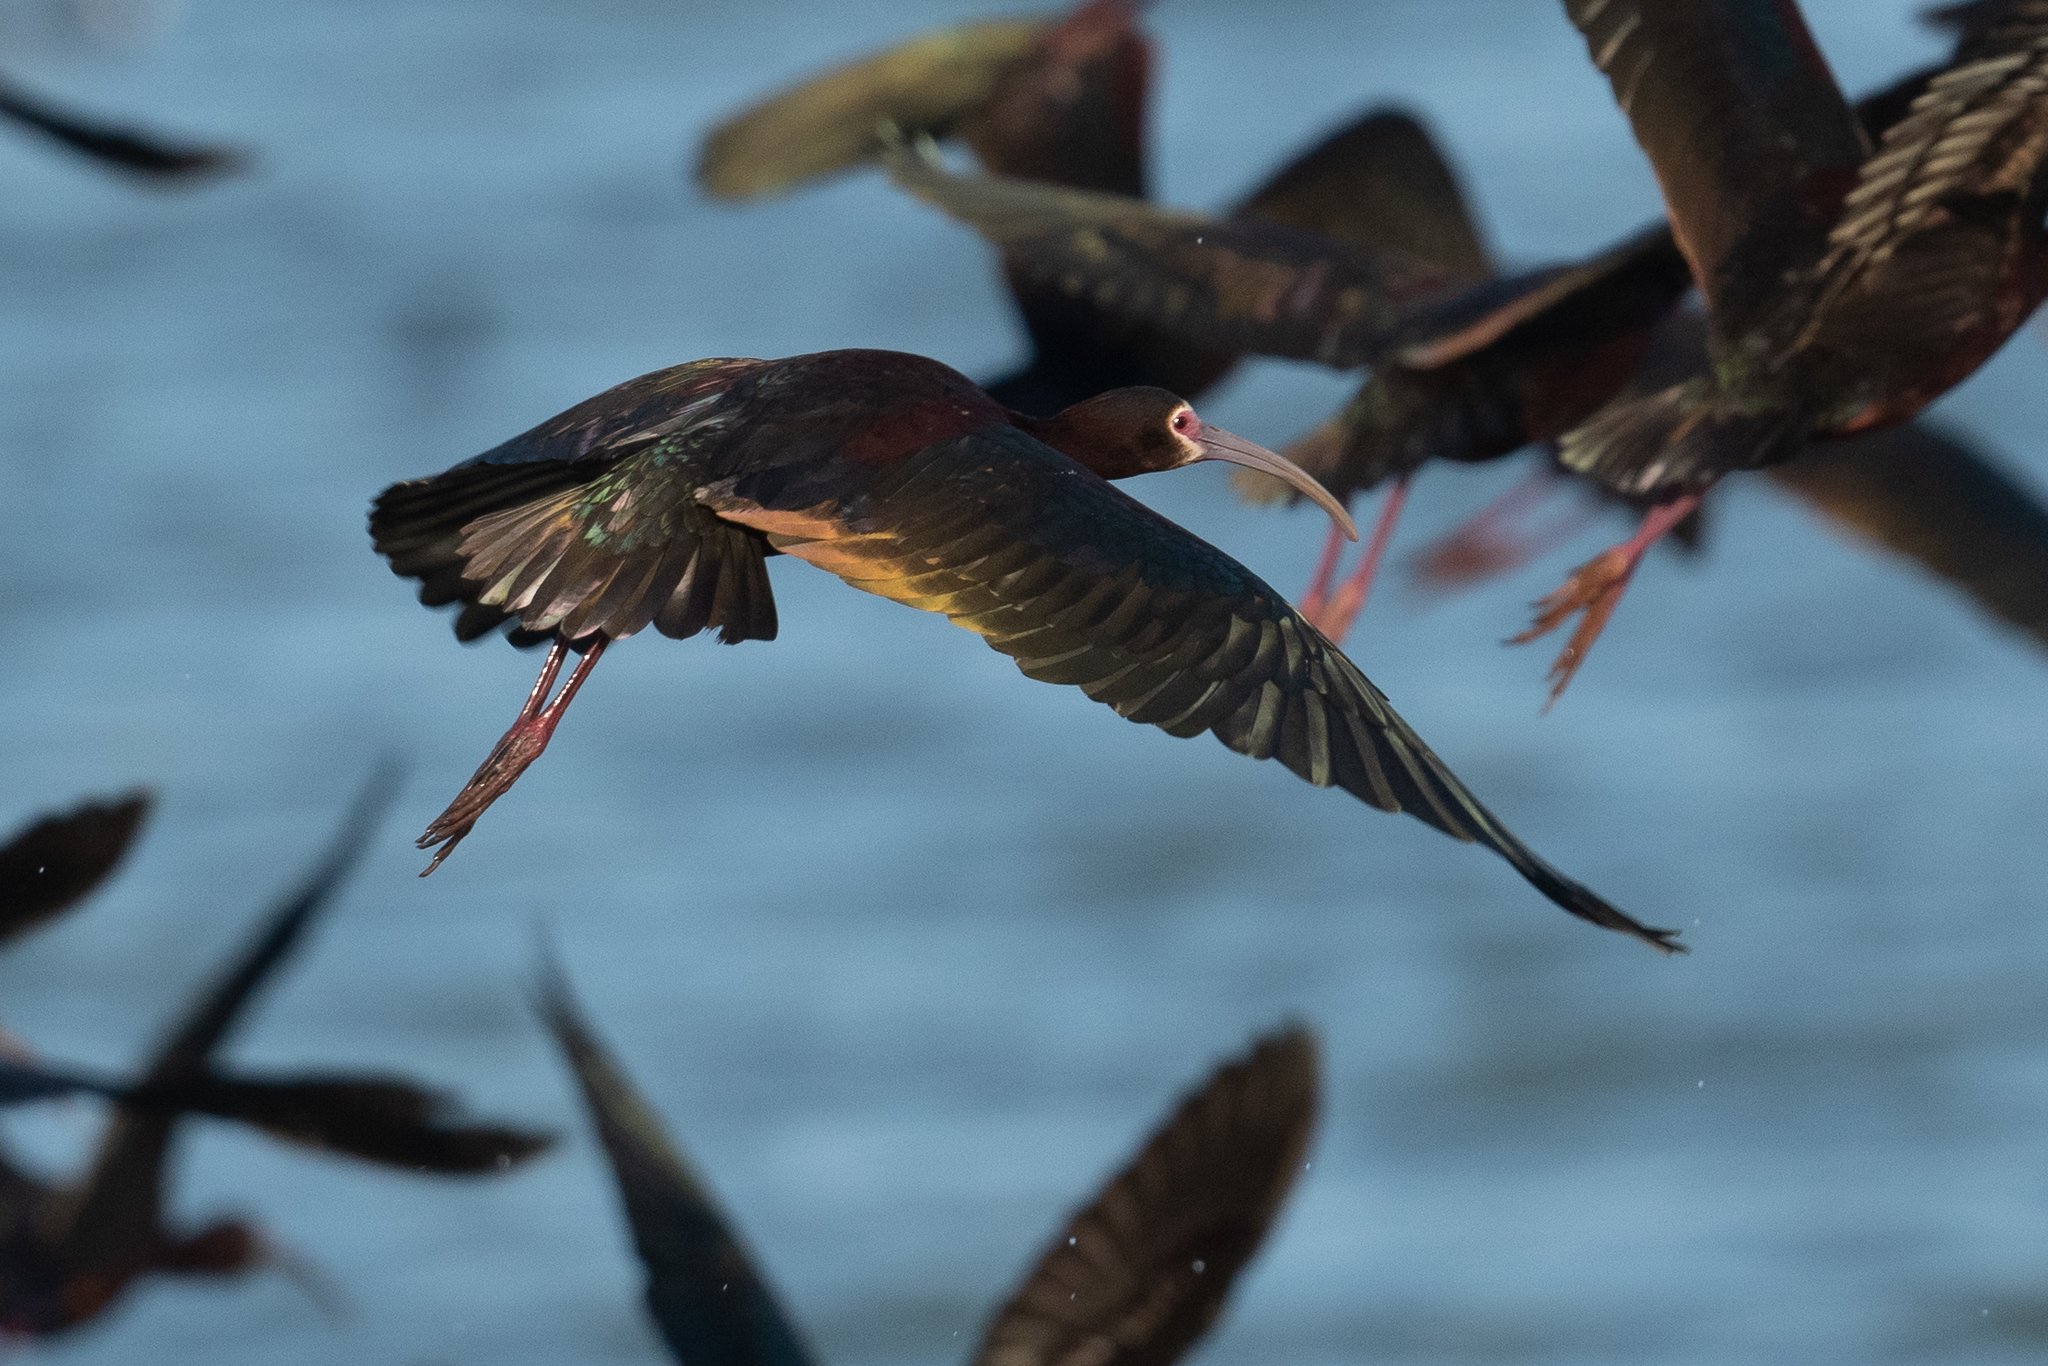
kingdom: Animalia
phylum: Chordata
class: Aves
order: Pelecaniformes
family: Threskiornithidae
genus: Plegadis
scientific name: Plegadis chihi
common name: White-faced ibis
